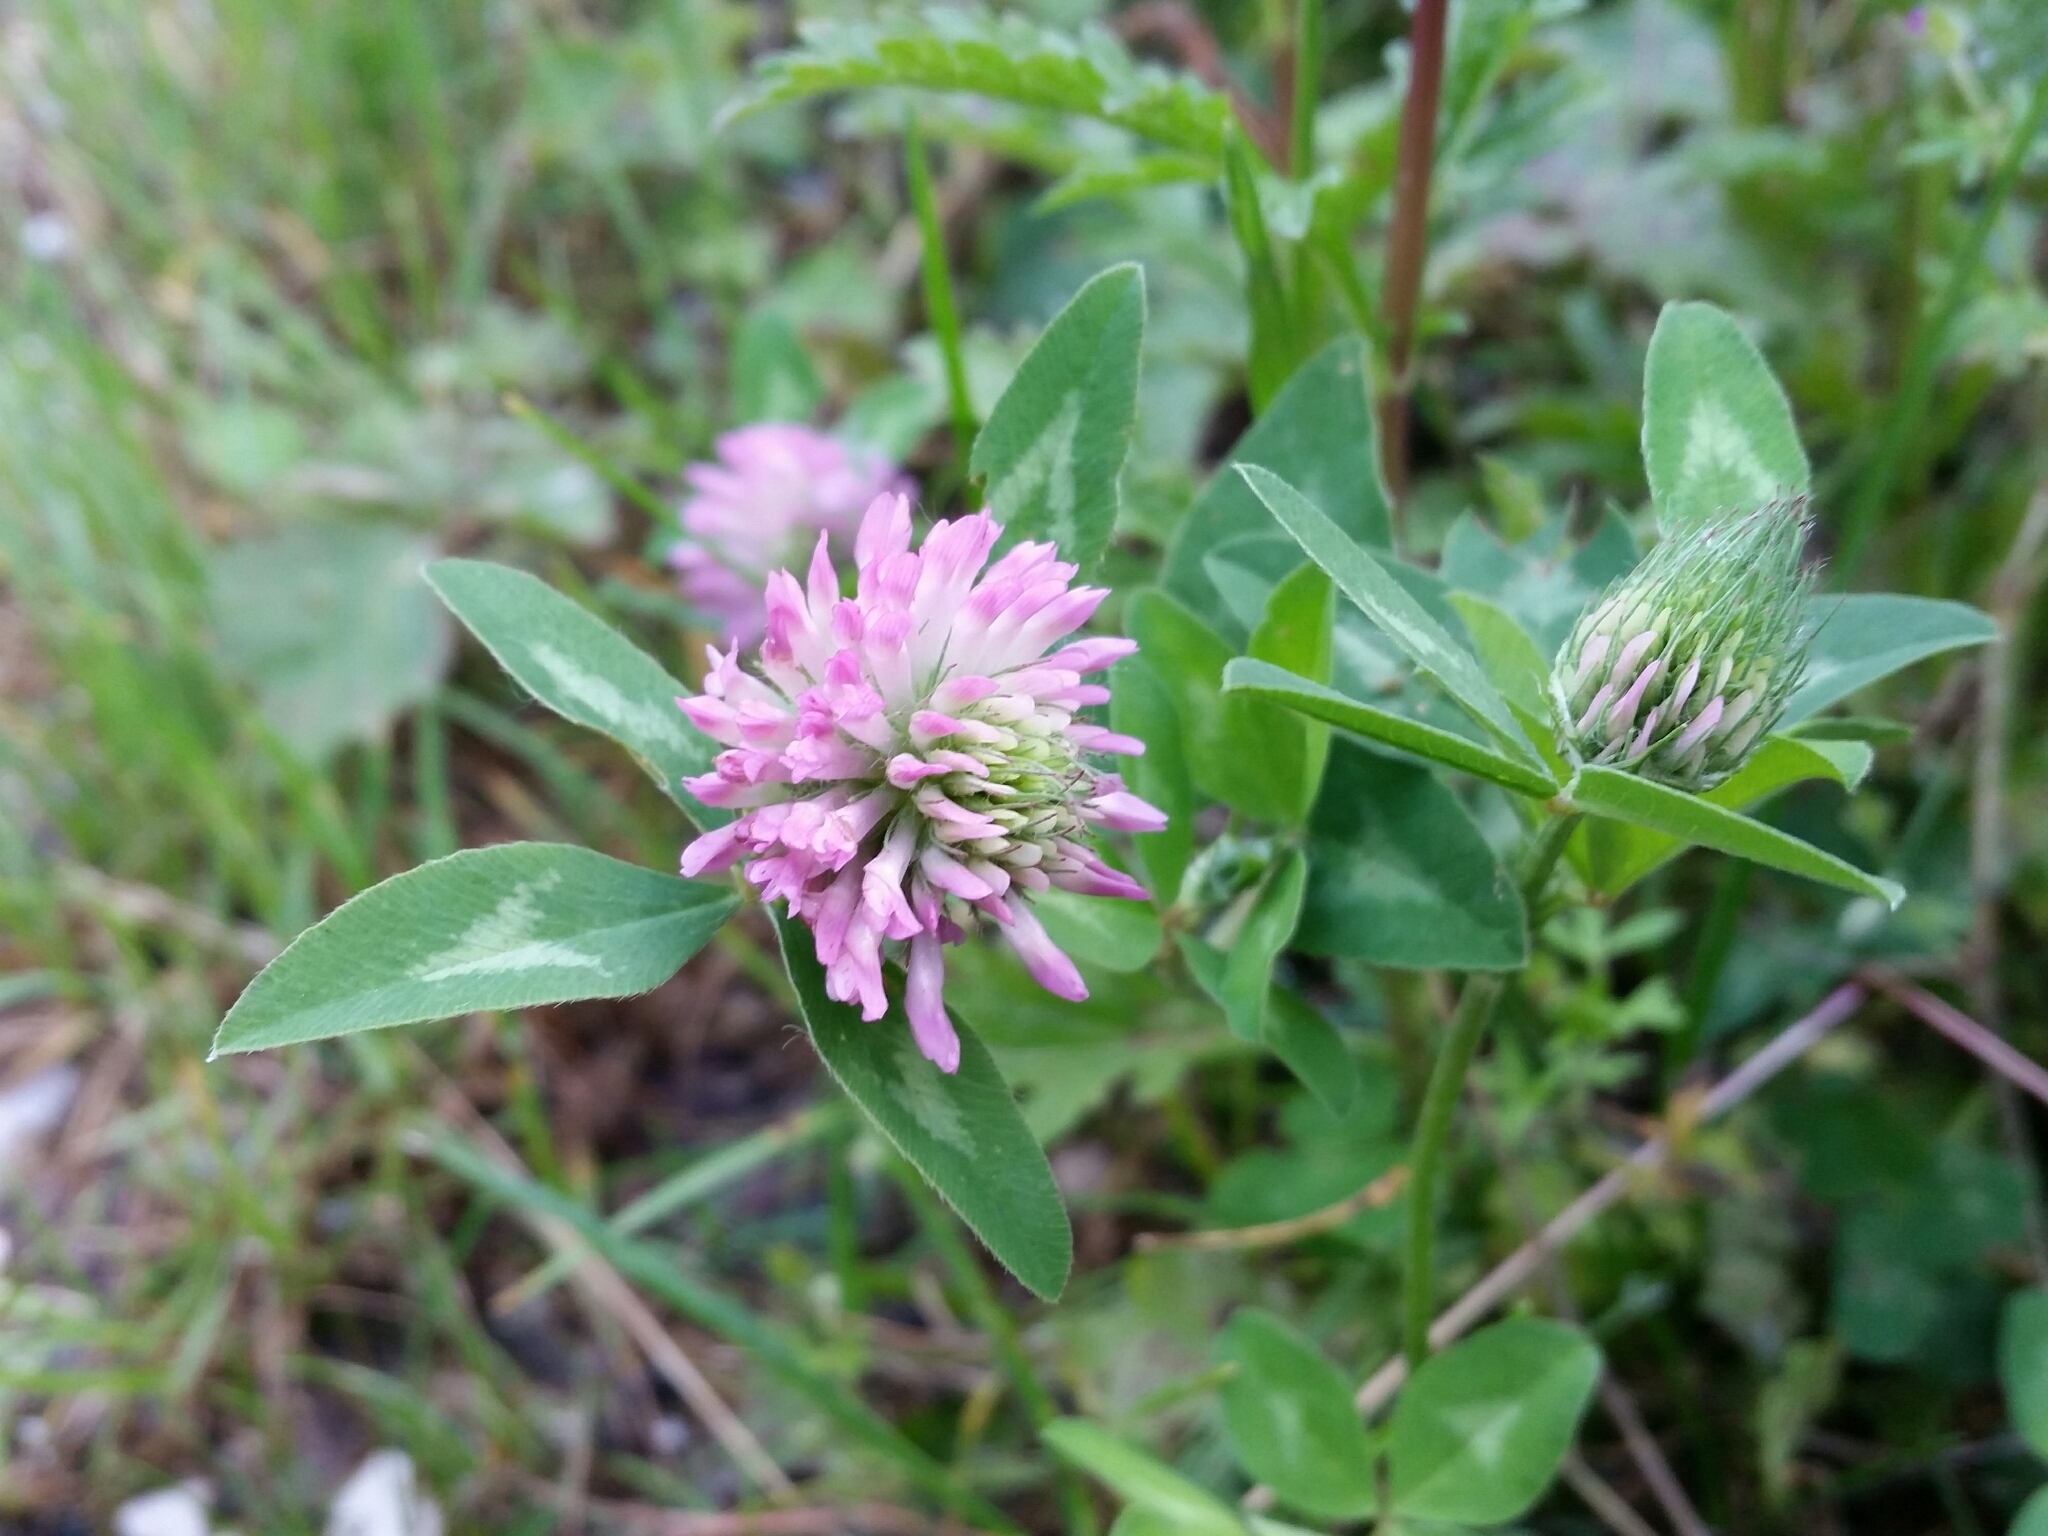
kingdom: Plantae
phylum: Tracheophyta
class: Magnoliopsida
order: Fabales
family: Fabaceae
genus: Trifolium
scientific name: Trifolium pratense
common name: Red clover
